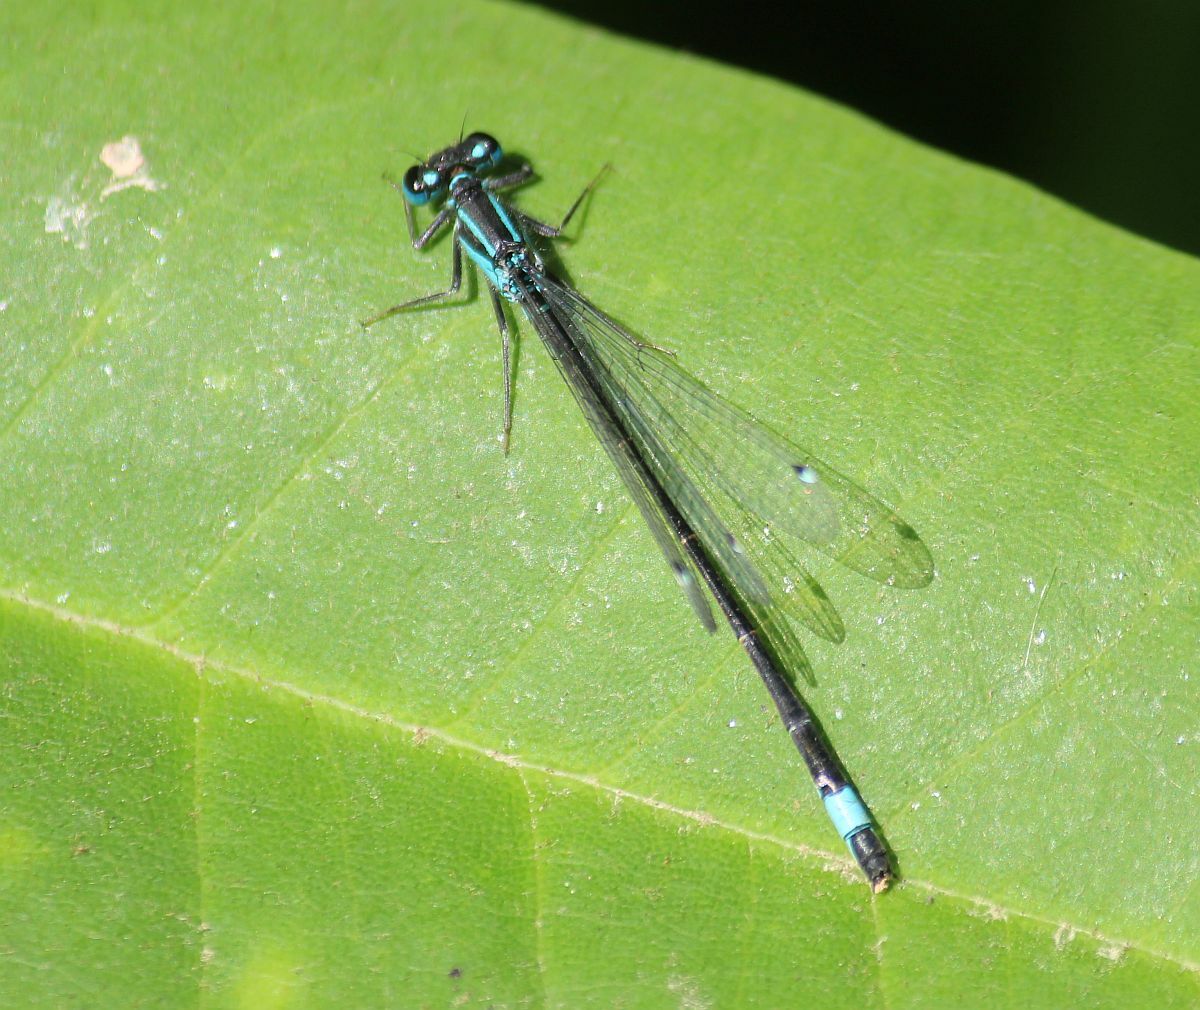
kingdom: Animalia
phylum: Arthropoda
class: Insecta
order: Odonata
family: Coenagrionidae
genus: Ischnura
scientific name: Ischnura elegans
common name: Blue-tailed damselfly
